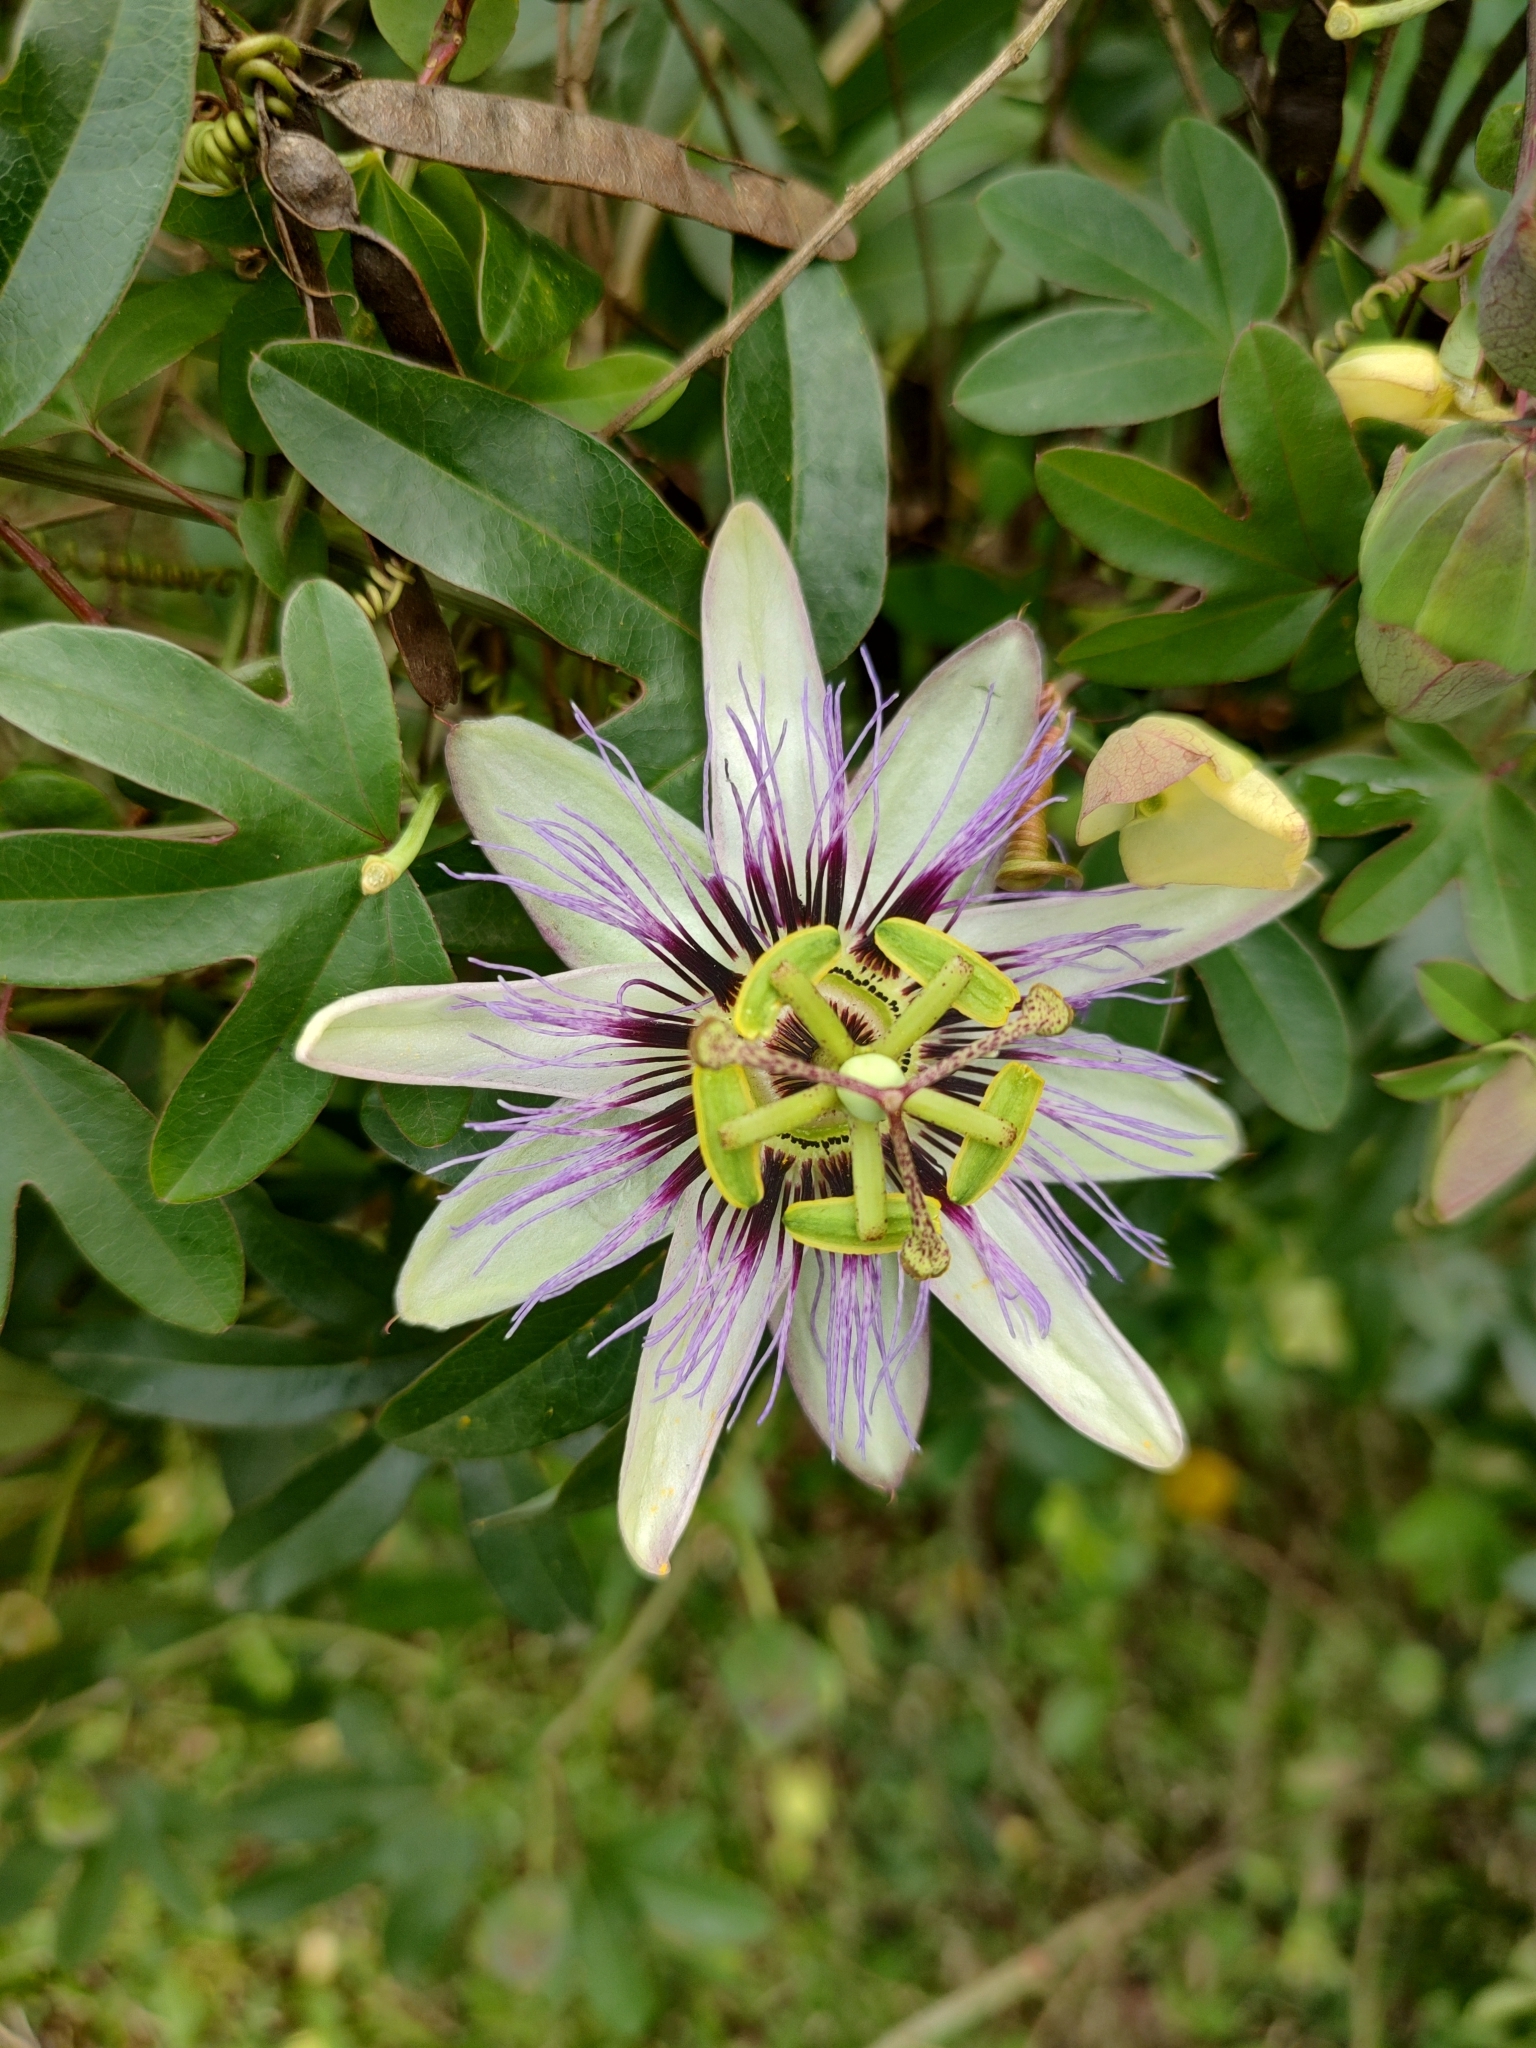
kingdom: Plantae
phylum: Tracheophyta
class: Magnoliopsida
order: Malpighiales
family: Passifloraceae
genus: Passiflora
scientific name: Passiflora caerulea
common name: Blue passionflower
